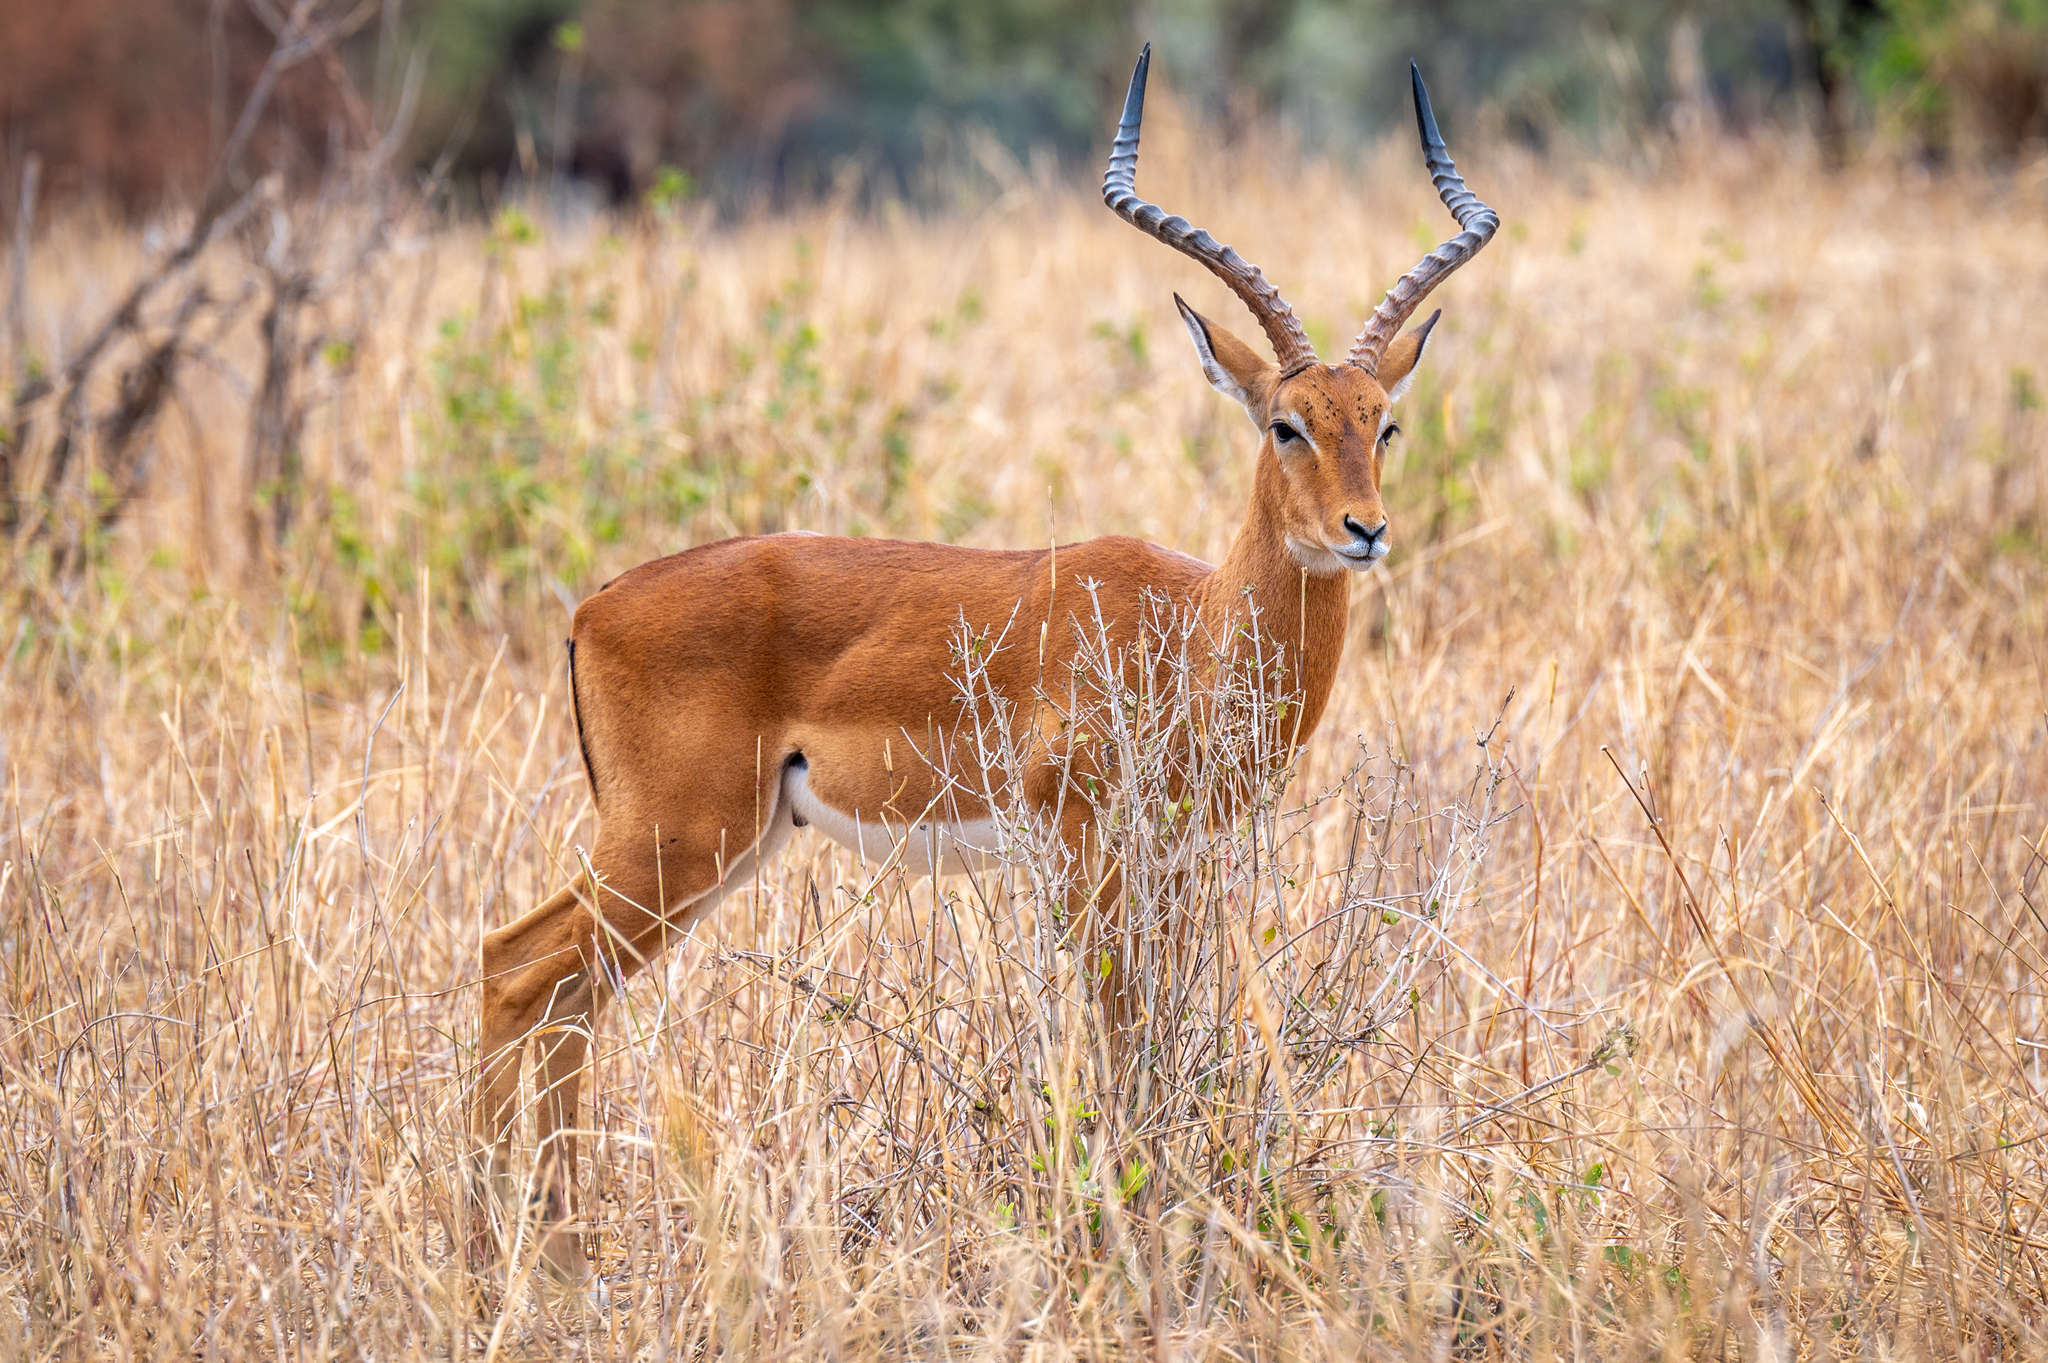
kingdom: Animalia
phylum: Chordata
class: Mammalia
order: Artiodactyla
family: Bovidae
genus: Aepyceros
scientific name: Aepyceros melampus
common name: Impala
